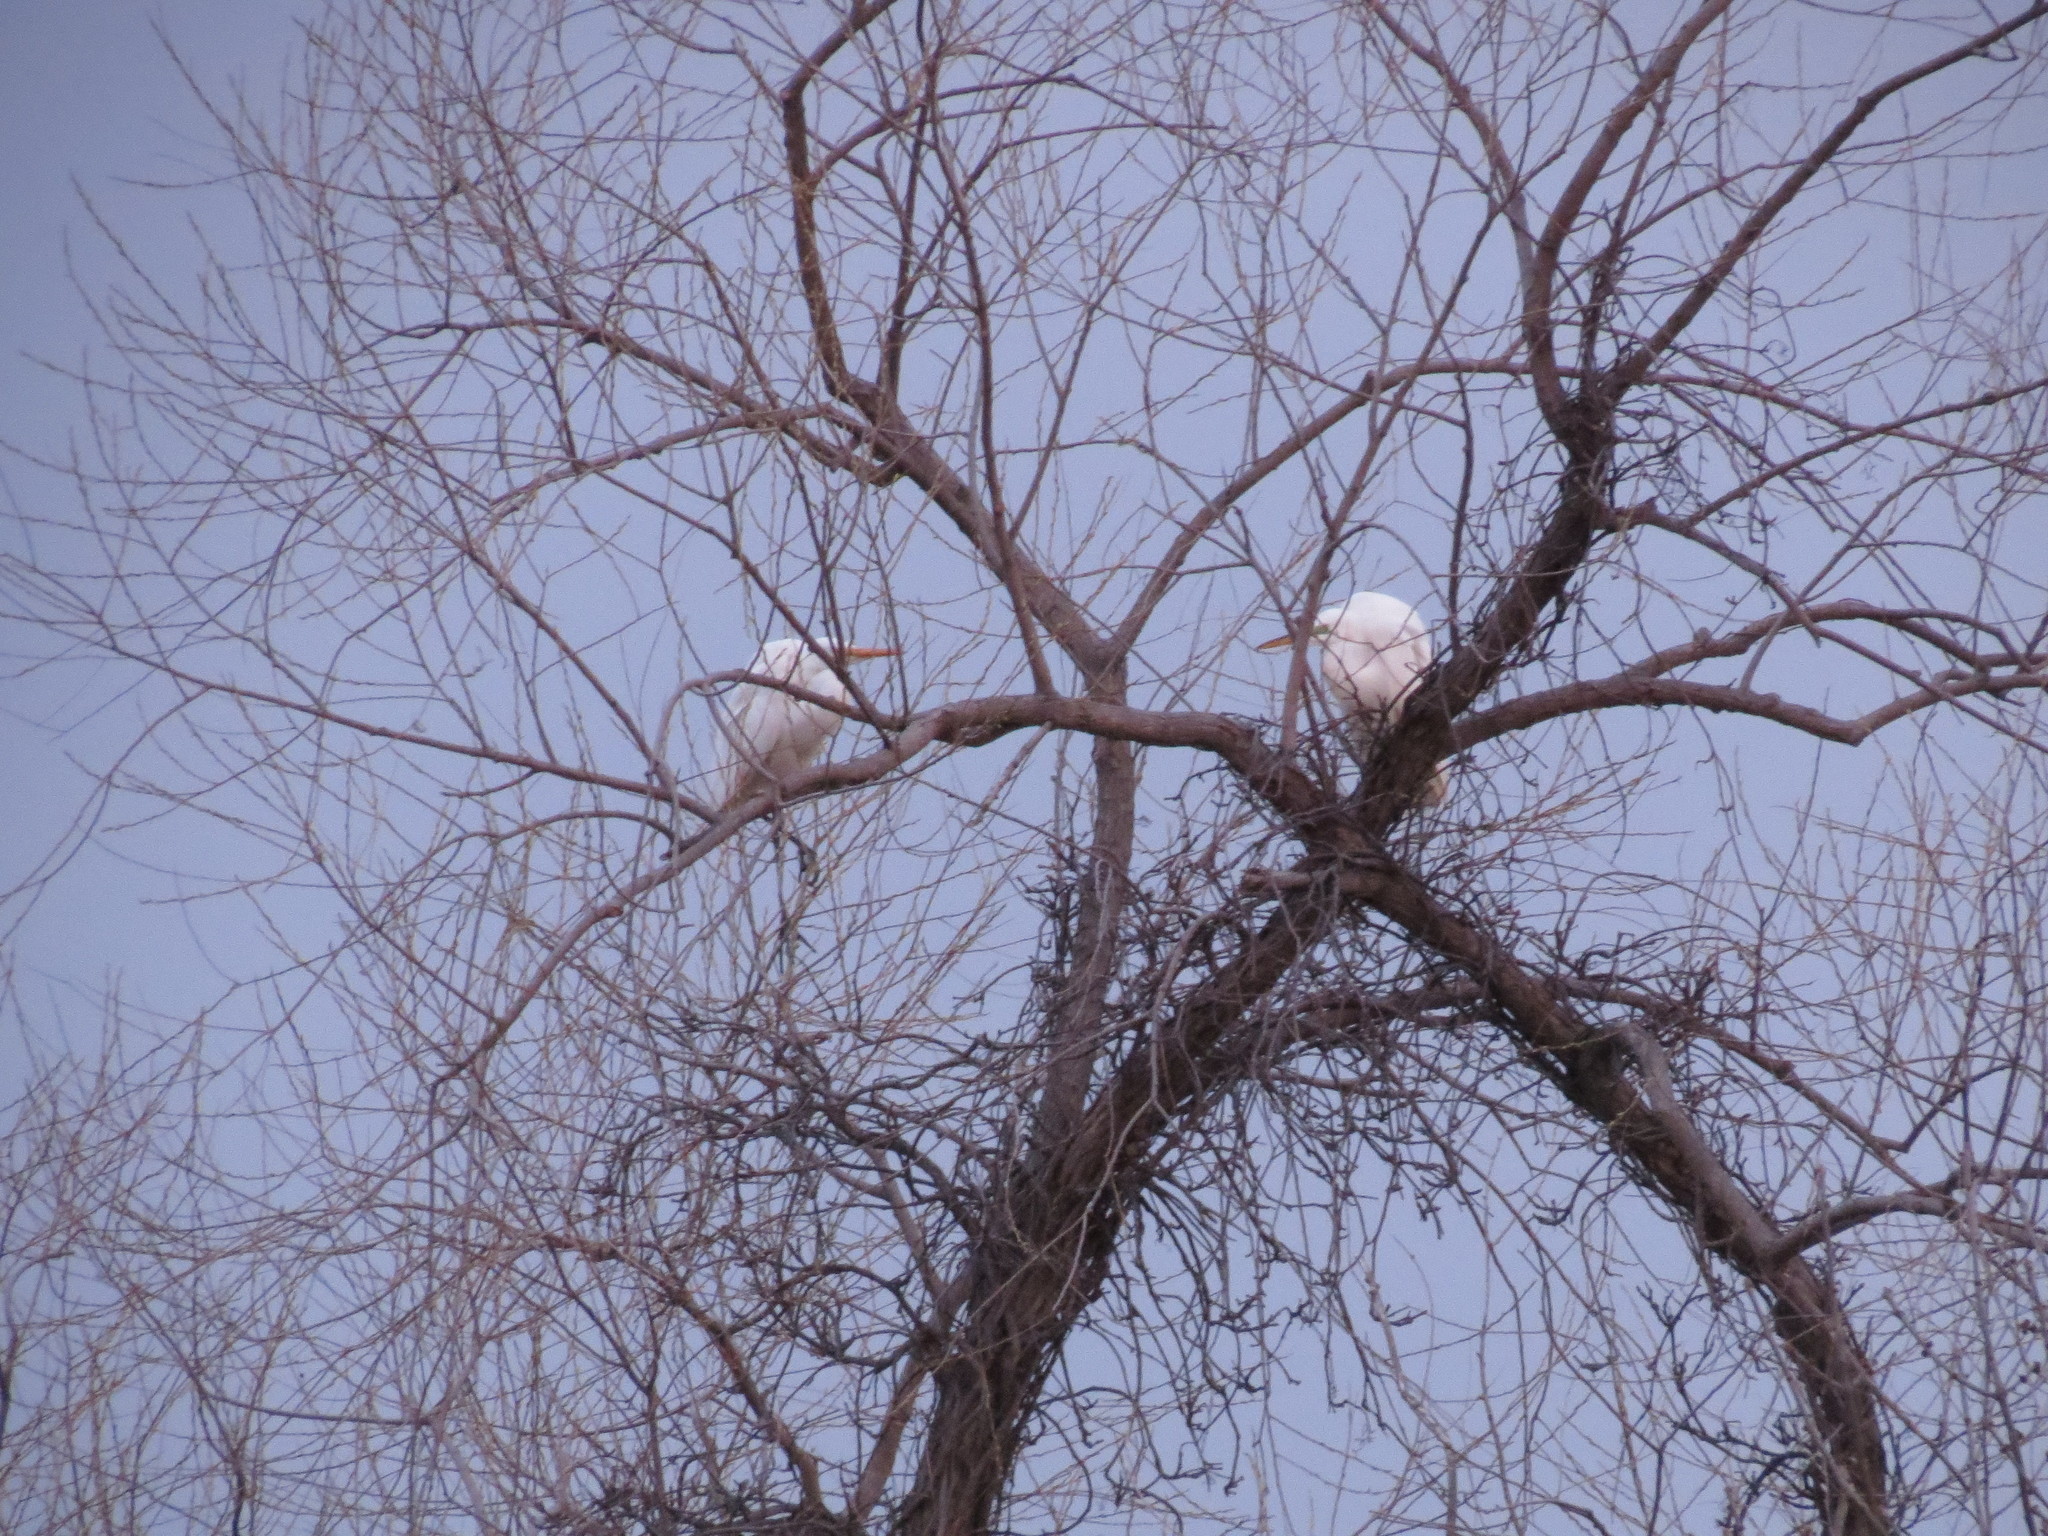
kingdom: Animalia
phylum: Chordata
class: Aves
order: Pelecaniformes
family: Ardeidae
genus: Ardea
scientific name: Ardea alba
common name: Great egret
